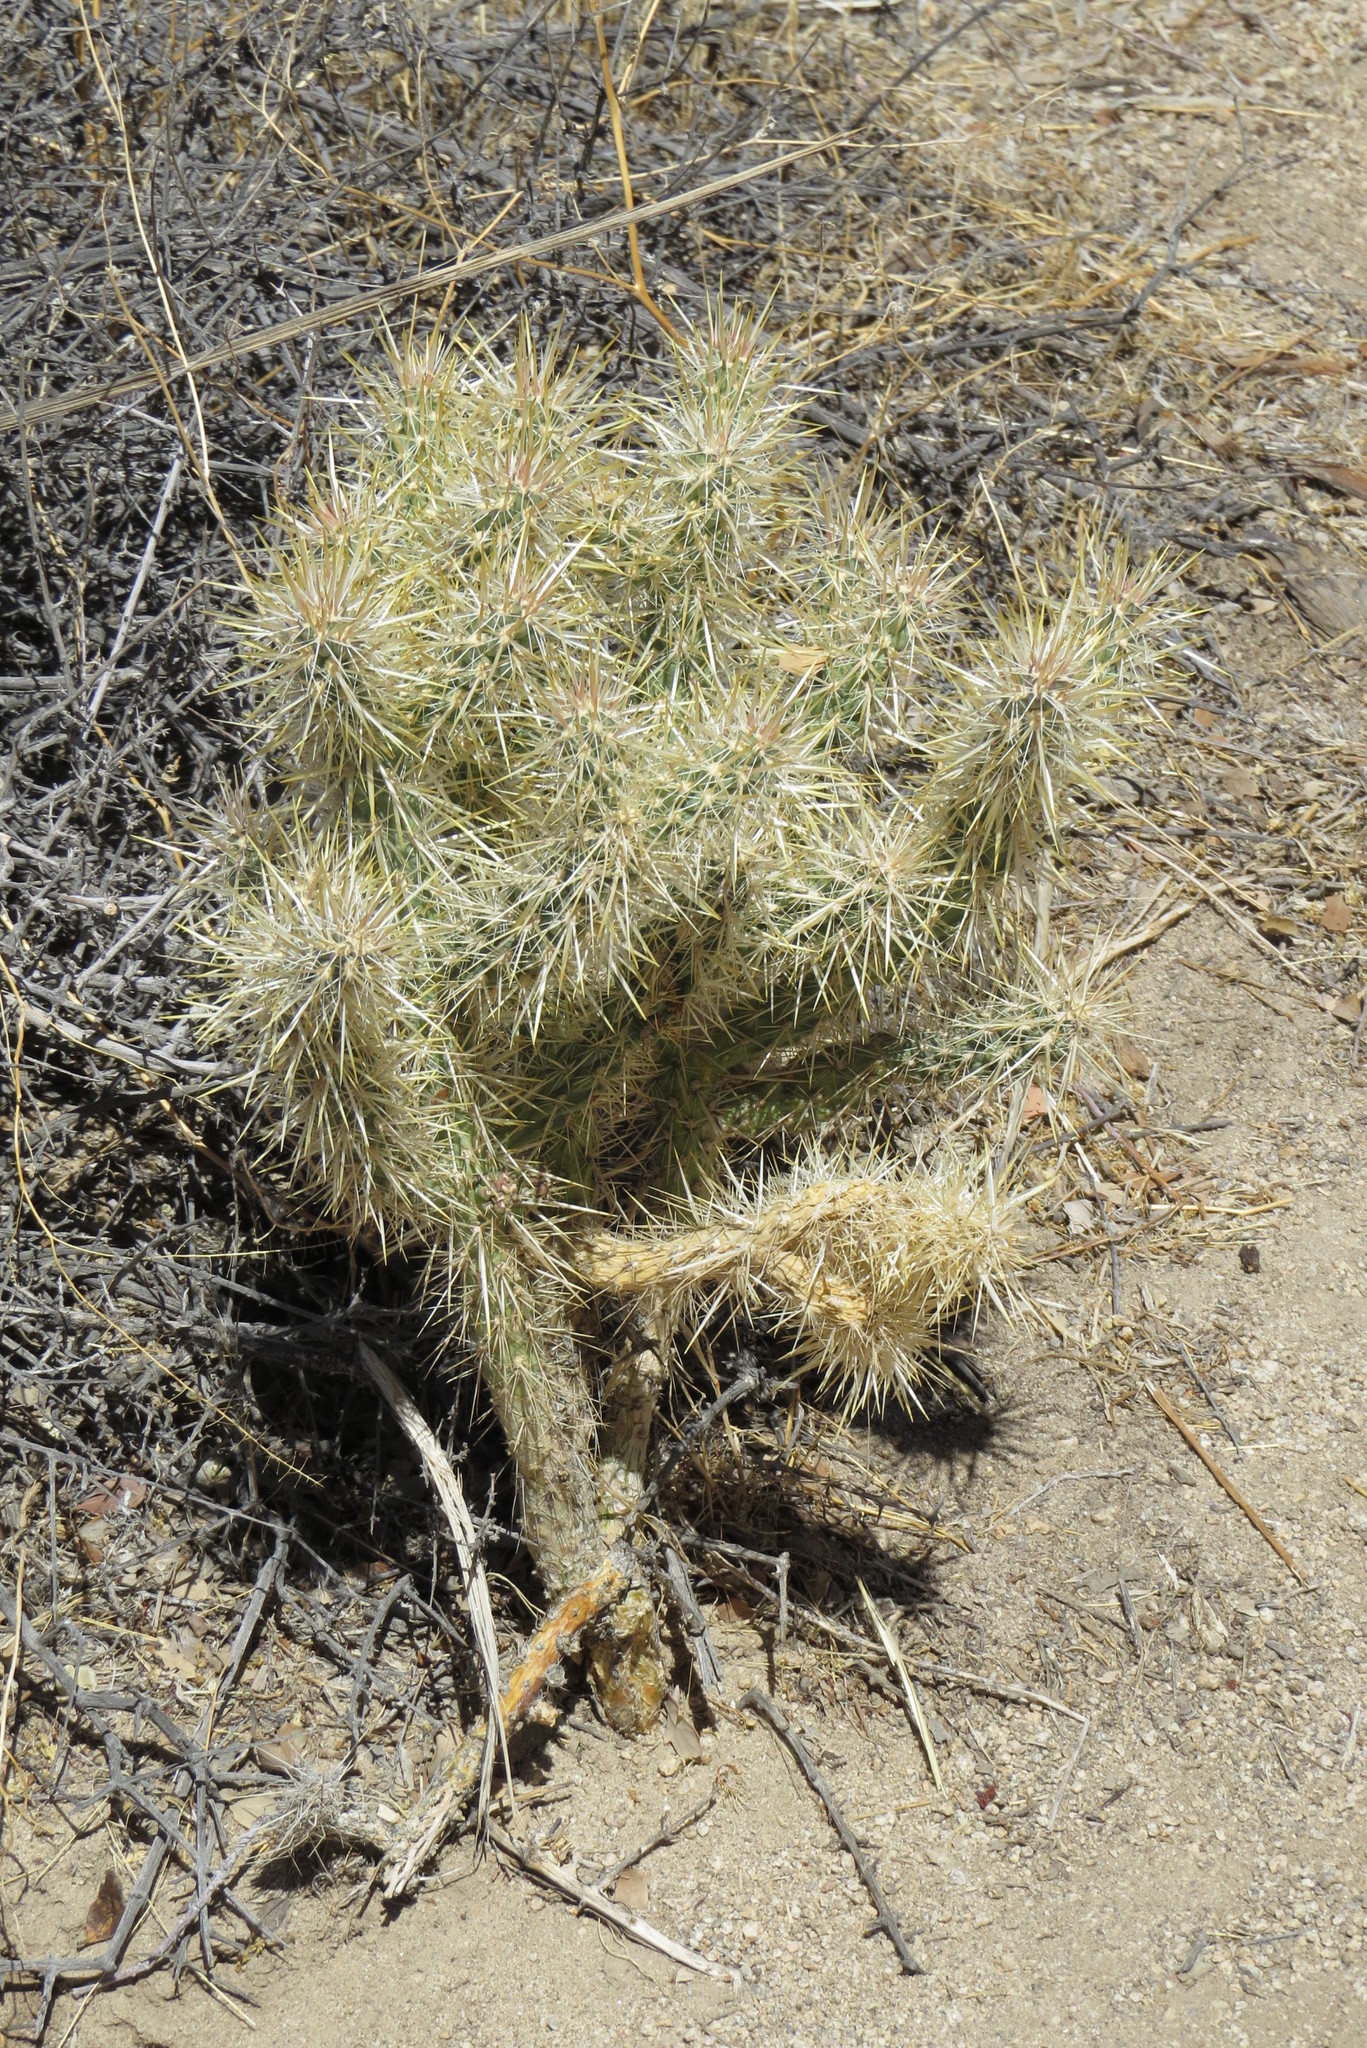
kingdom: Plantae
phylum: Tracheophyta
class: Magnoliopsida
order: Caryophyllales
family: Cactaceae
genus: Cylindropuntia
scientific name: Cylindropuntia echinocarpa
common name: Ground cholla
